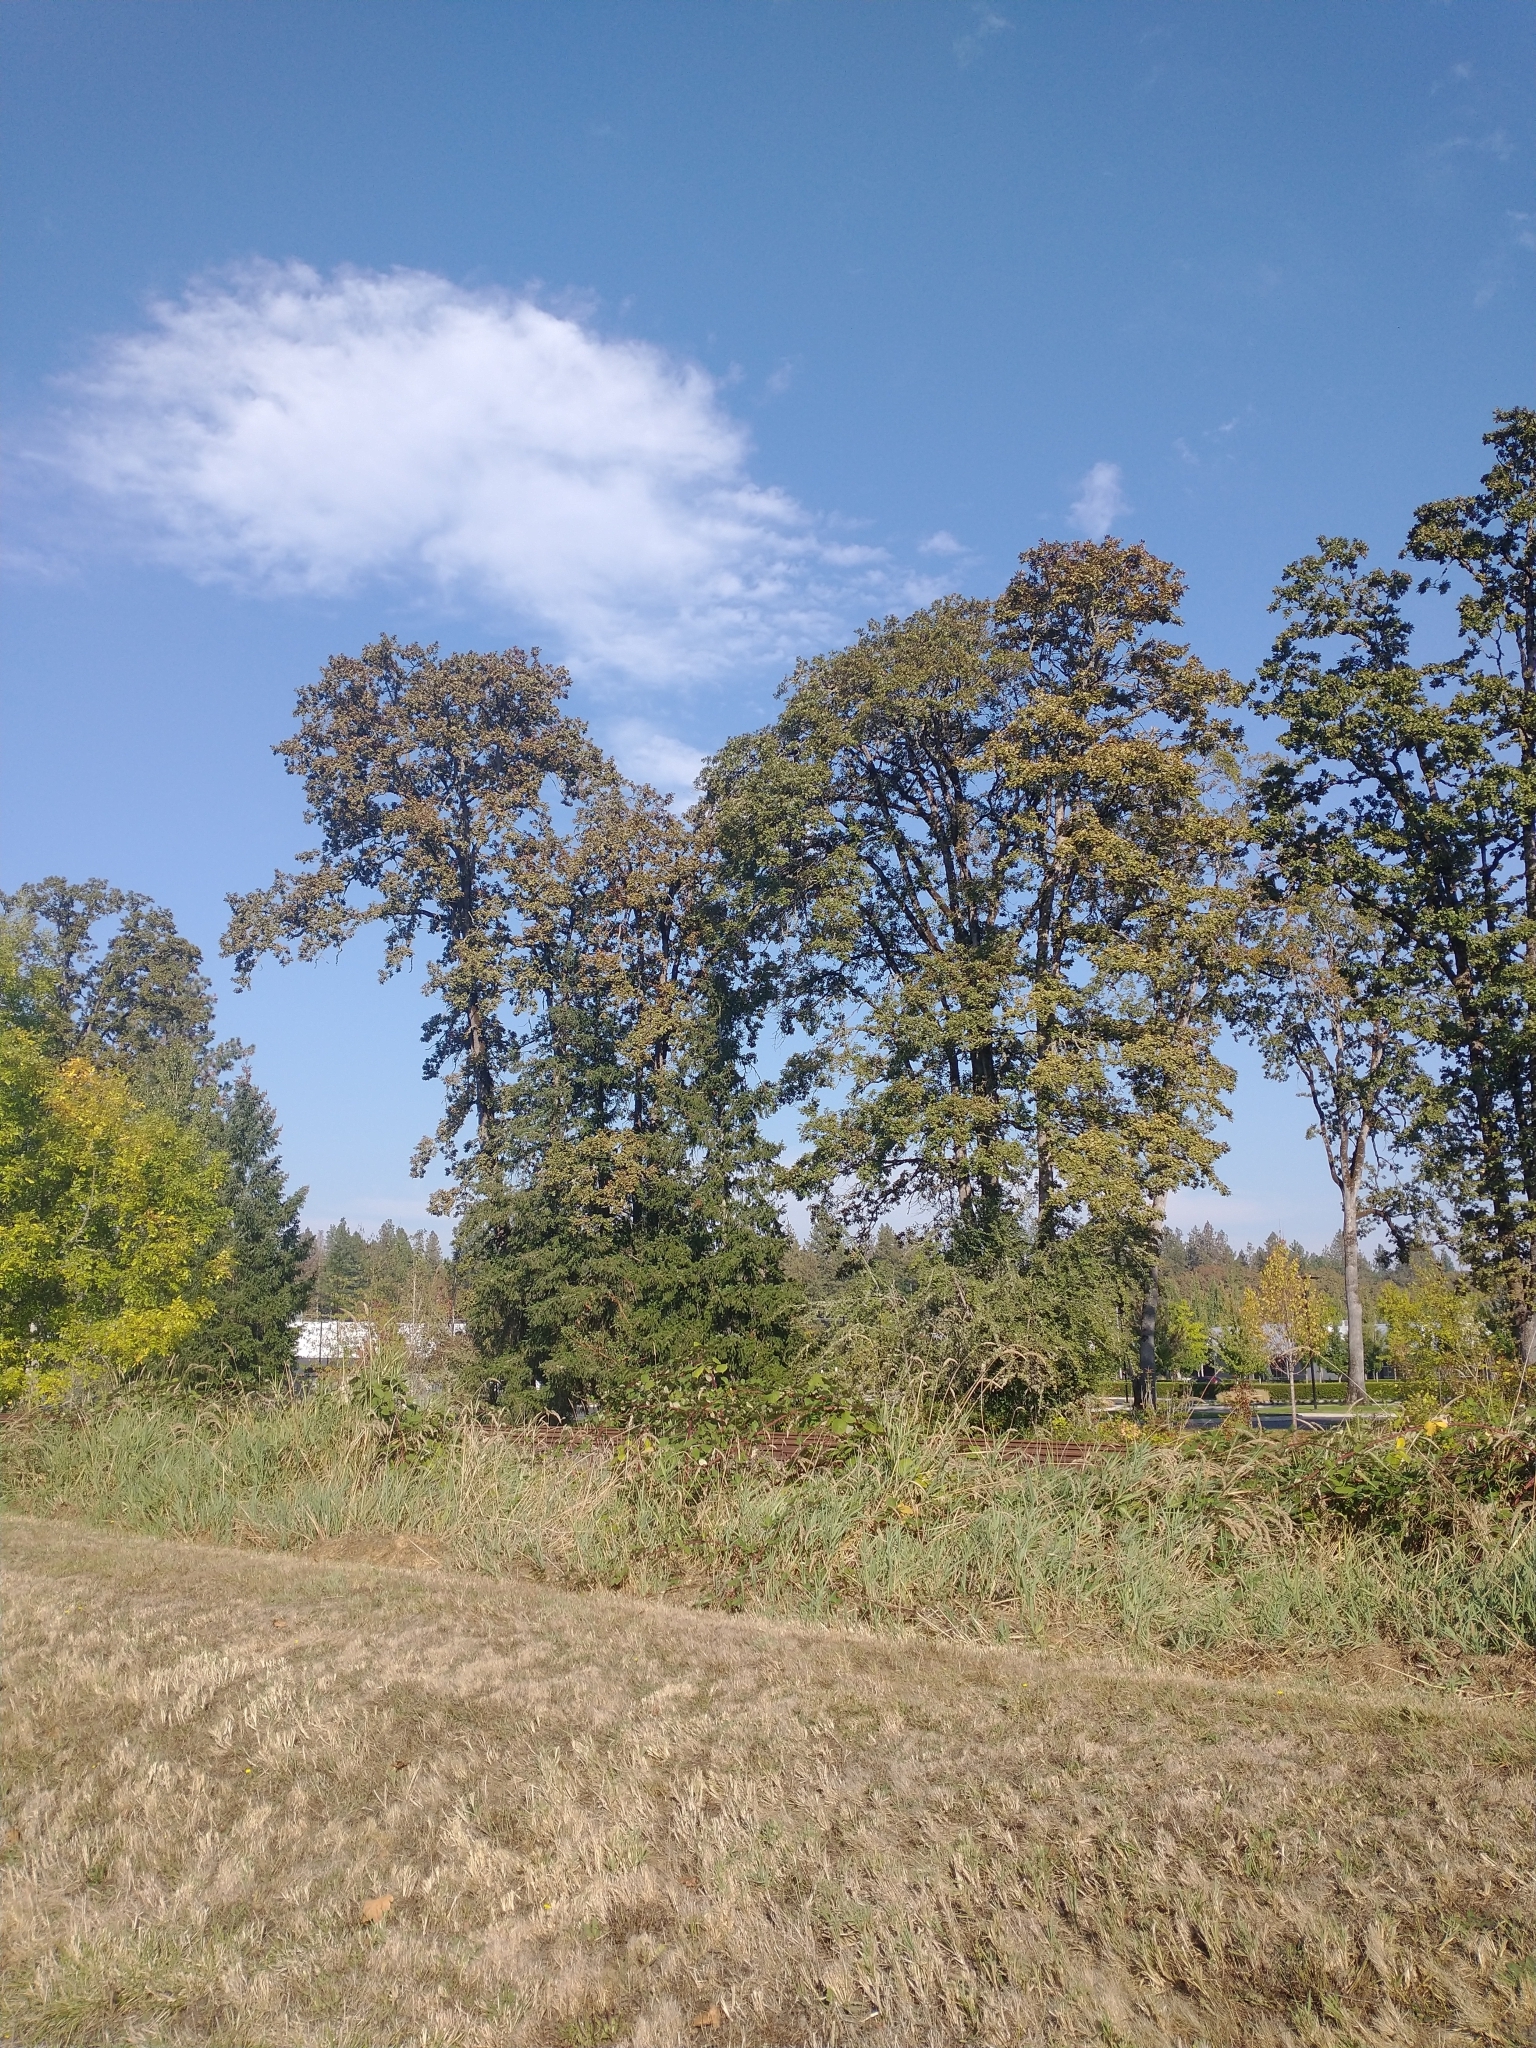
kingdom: Plantae
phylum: Tracheophyta
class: Magnoliopsida
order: Fagales
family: Fagaceae
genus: Quercus
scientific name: Quercus garryana
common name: Garry oak
